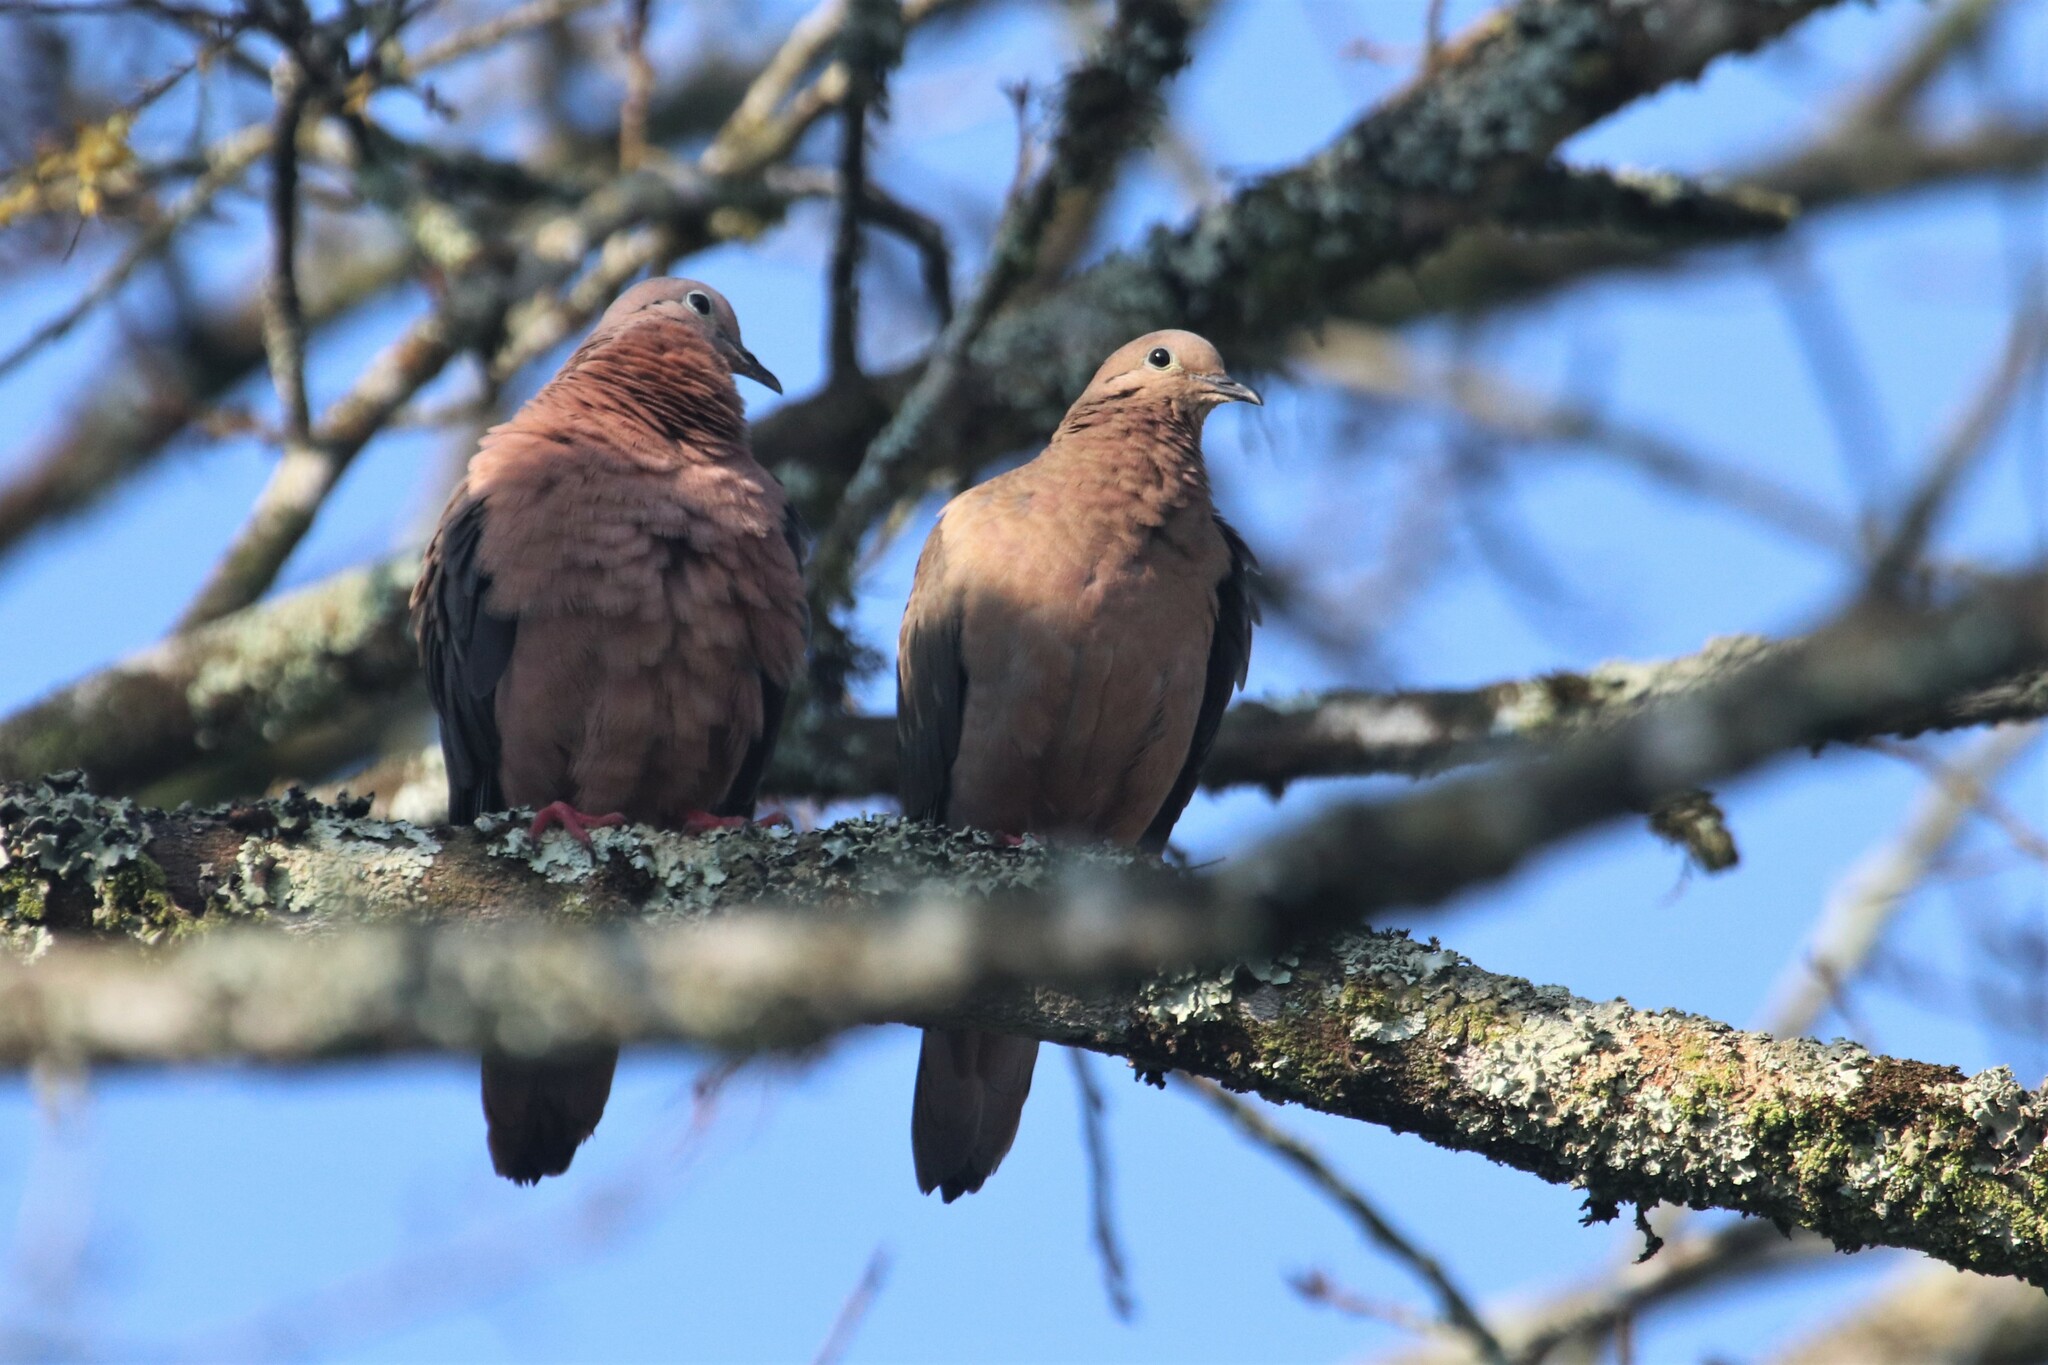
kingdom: Animalia
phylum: Chordata
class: Aves
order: Columbiformes
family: Columbidae
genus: Zenaida
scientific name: Zenaida auriculata
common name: Eared dove
